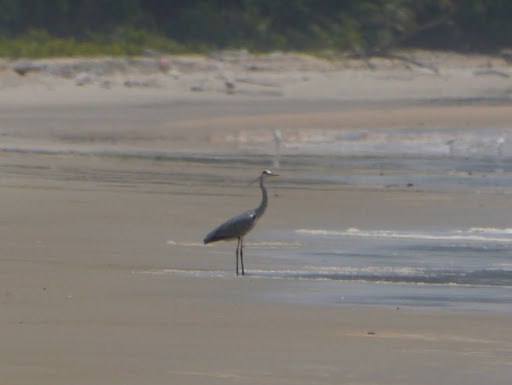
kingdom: Animalia
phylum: Chordata
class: Aves
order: Pelecaniformes
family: Ardeidae
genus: Ardea
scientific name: Ardea cinerea
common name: Grey heron
